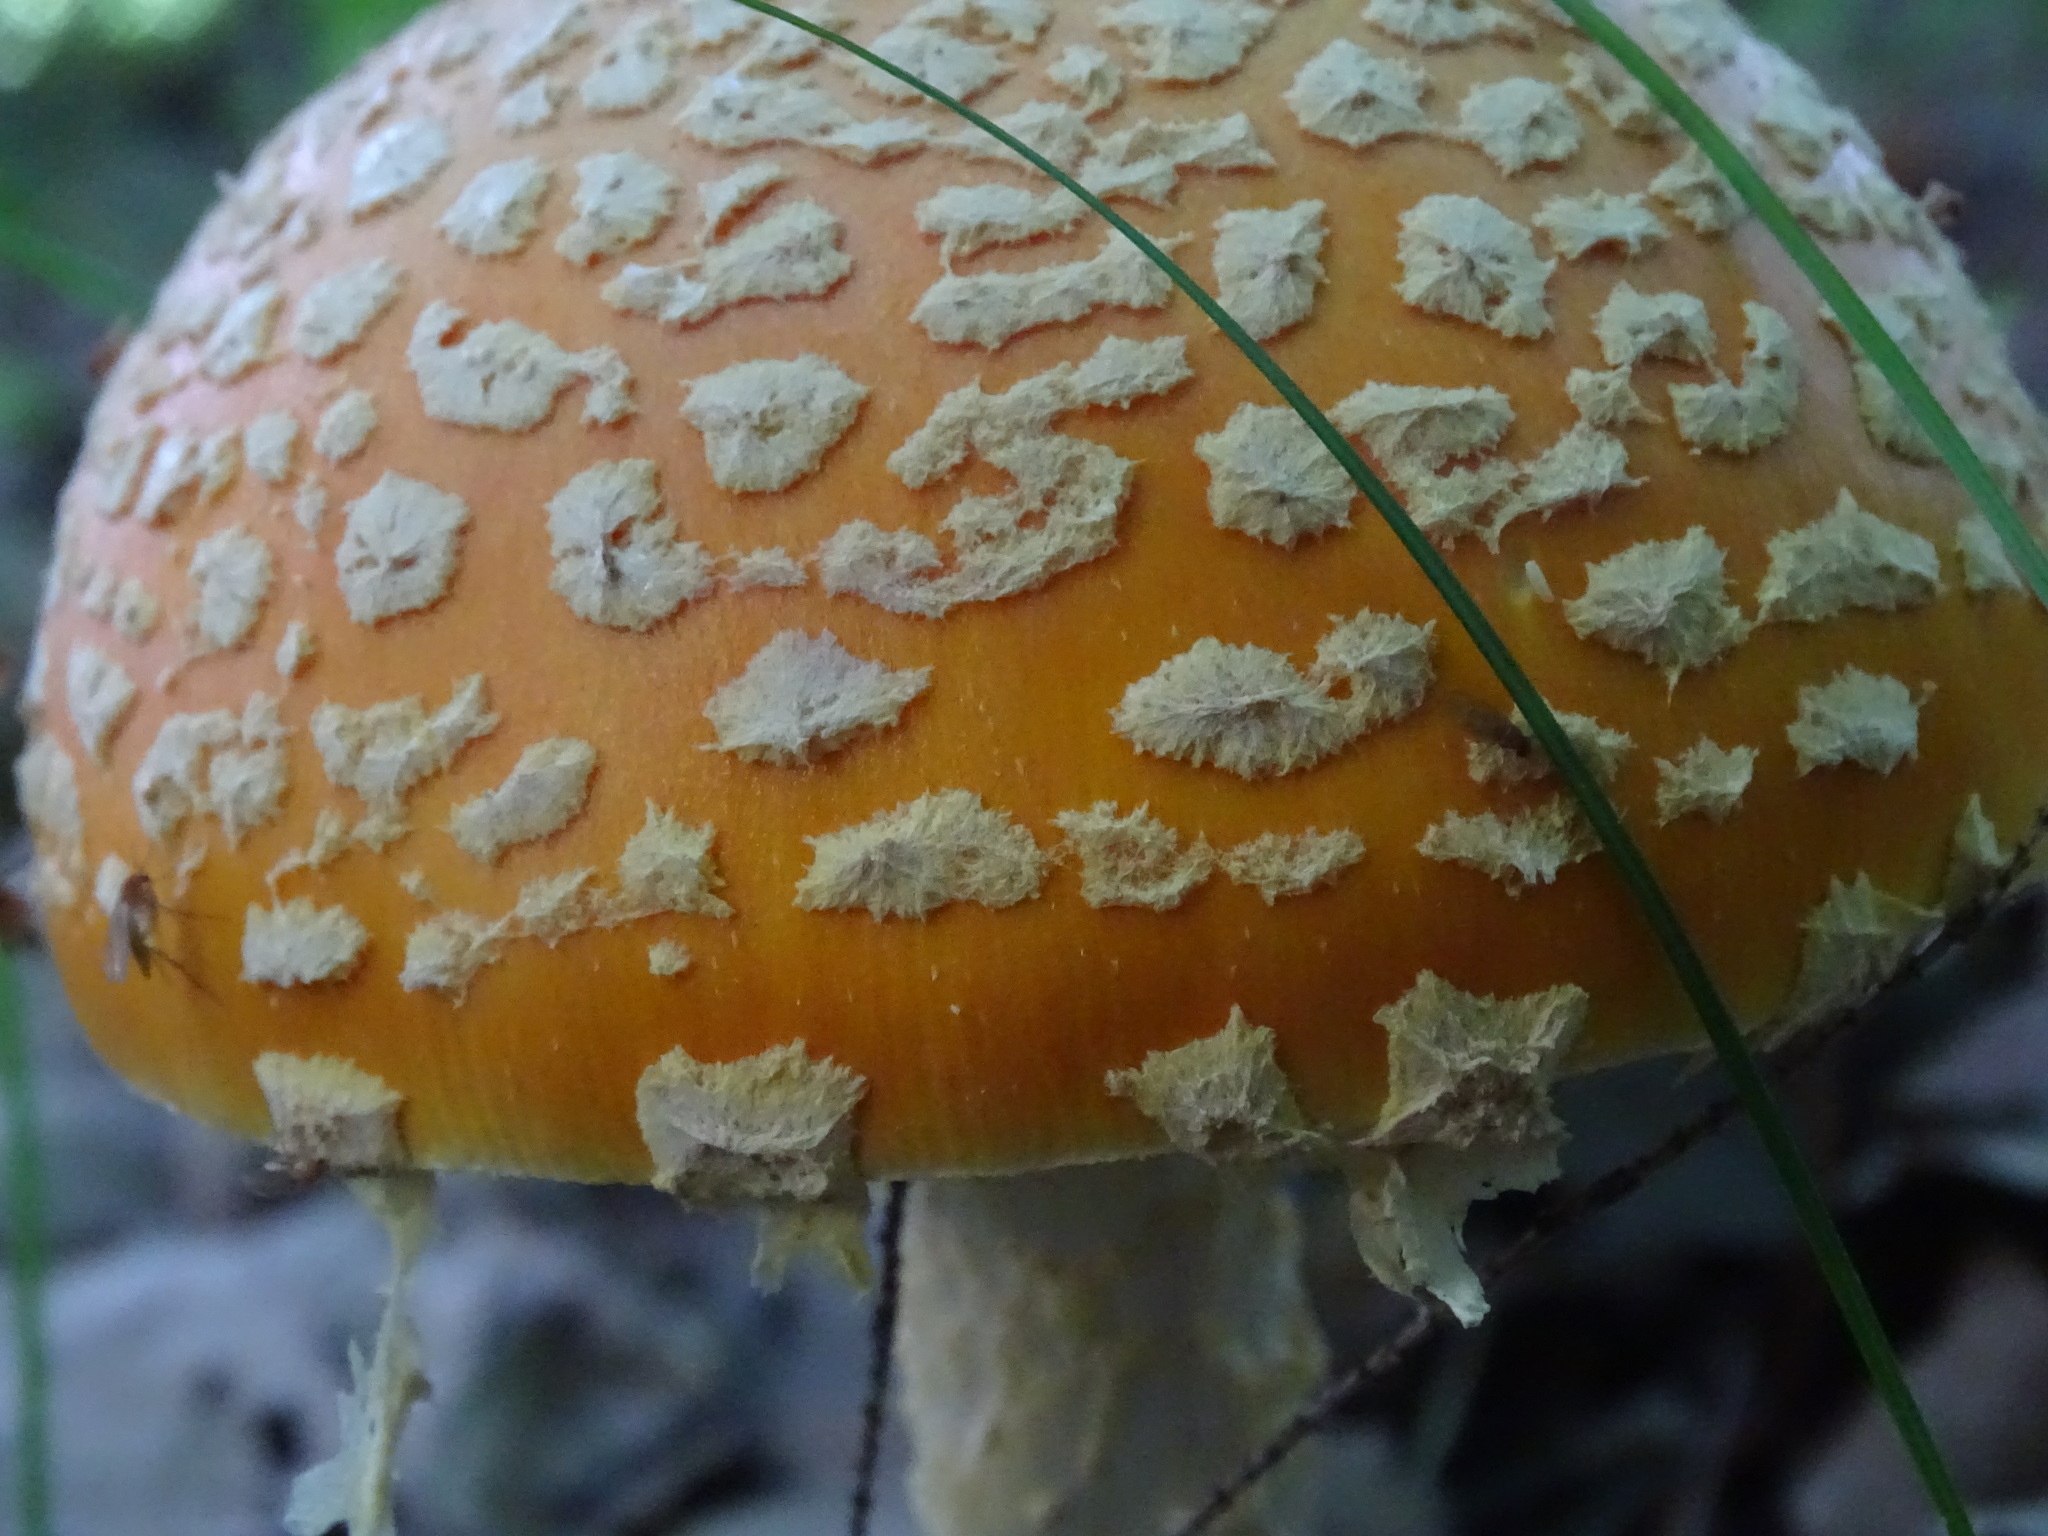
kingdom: Fungi
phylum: Basidiomycota
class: Agaricomycetes
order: Agaricales
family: Amanitaceae
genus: Amanita
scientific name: Amanita muscaria
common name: Fly agaric
